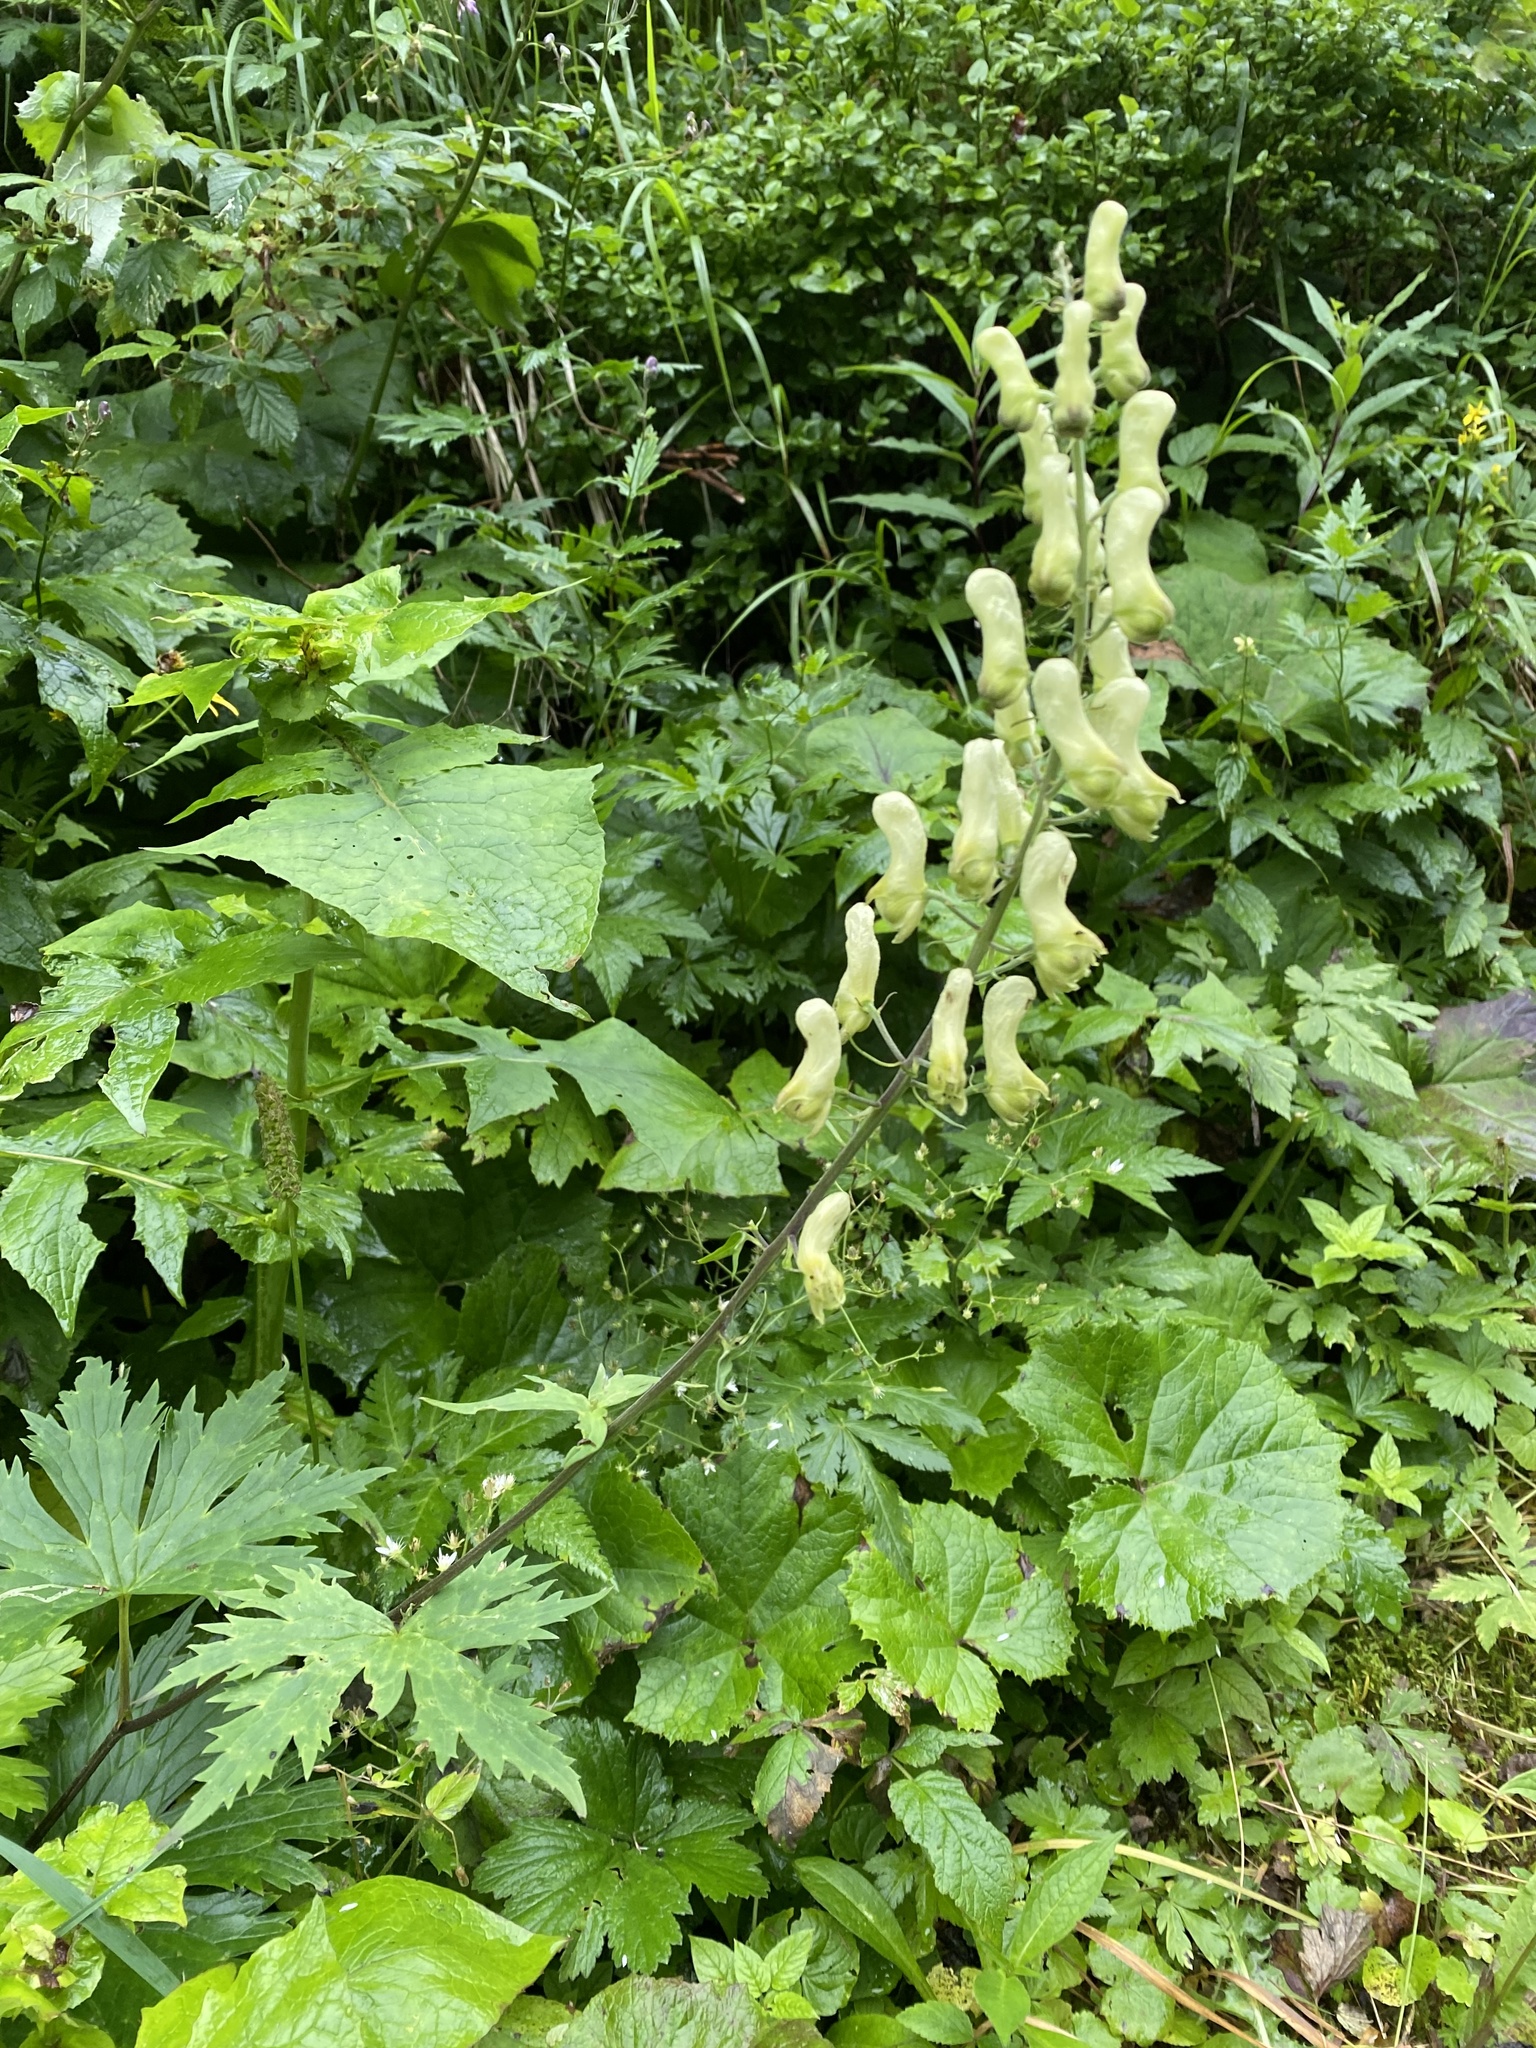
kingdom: Plantae
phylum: Tracheophyta
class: Magnoliopsida
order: Ranunculales
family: Ranunculaceae
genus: Aconitum
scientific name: Aconitum lycoctonum
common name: Wolf's-bane
